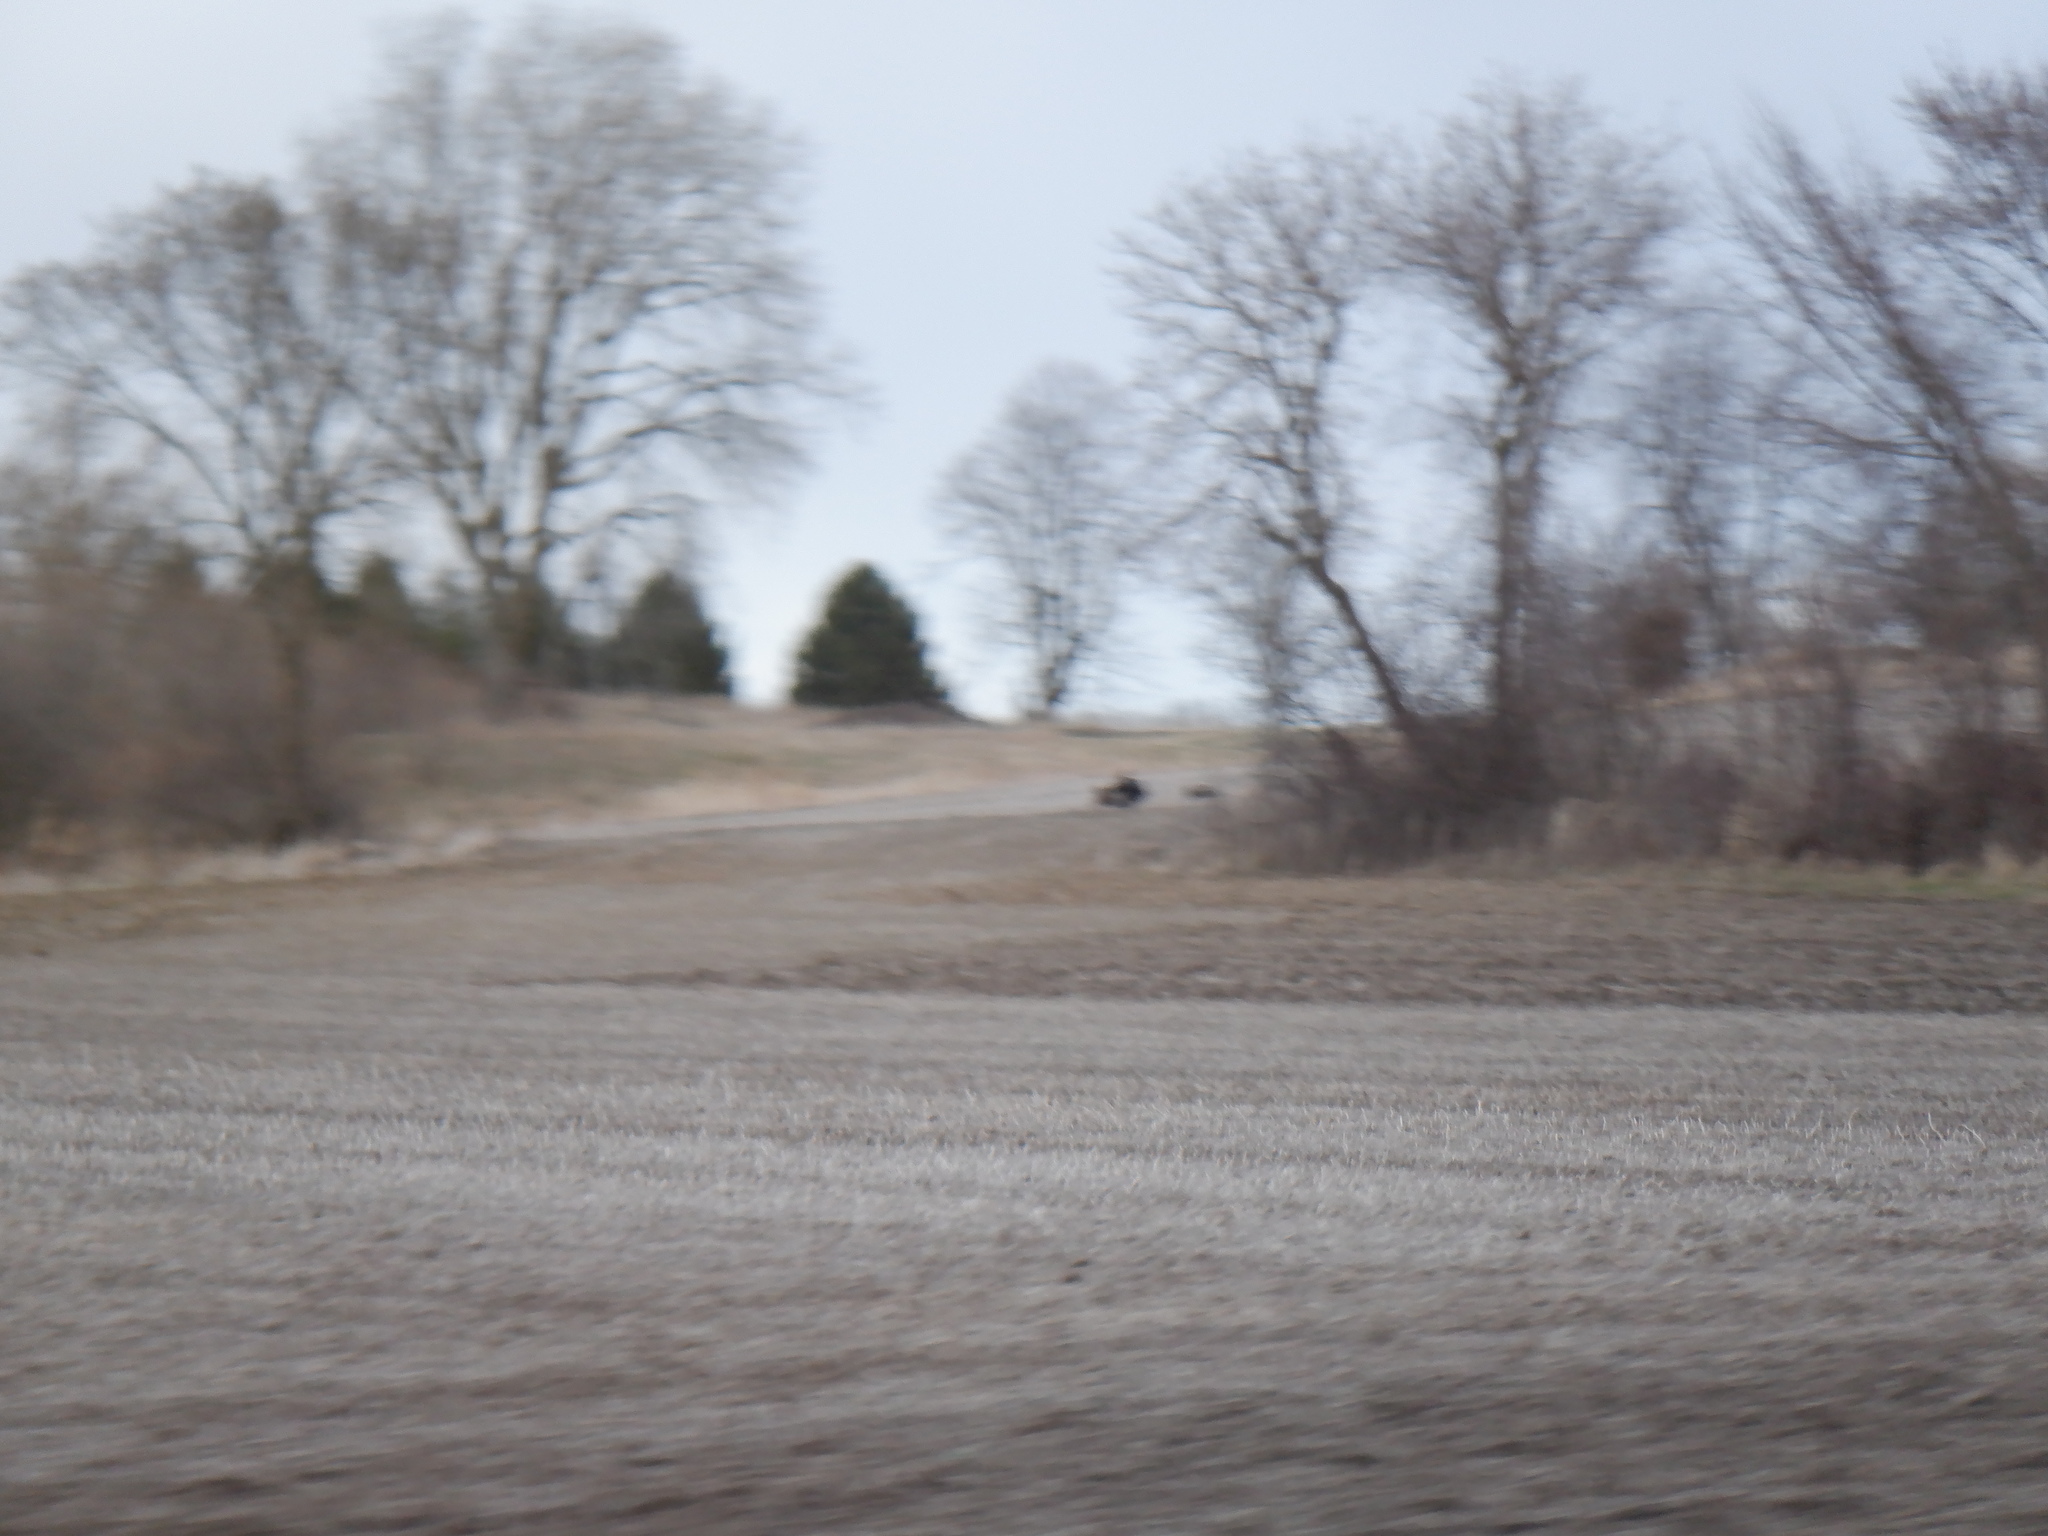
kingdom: Animalia
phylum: Chordata
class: Aves
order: Galliformes
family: Phasianidae
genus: Meleagris
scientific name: Meleagris gallopavo
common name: Wild turkey
